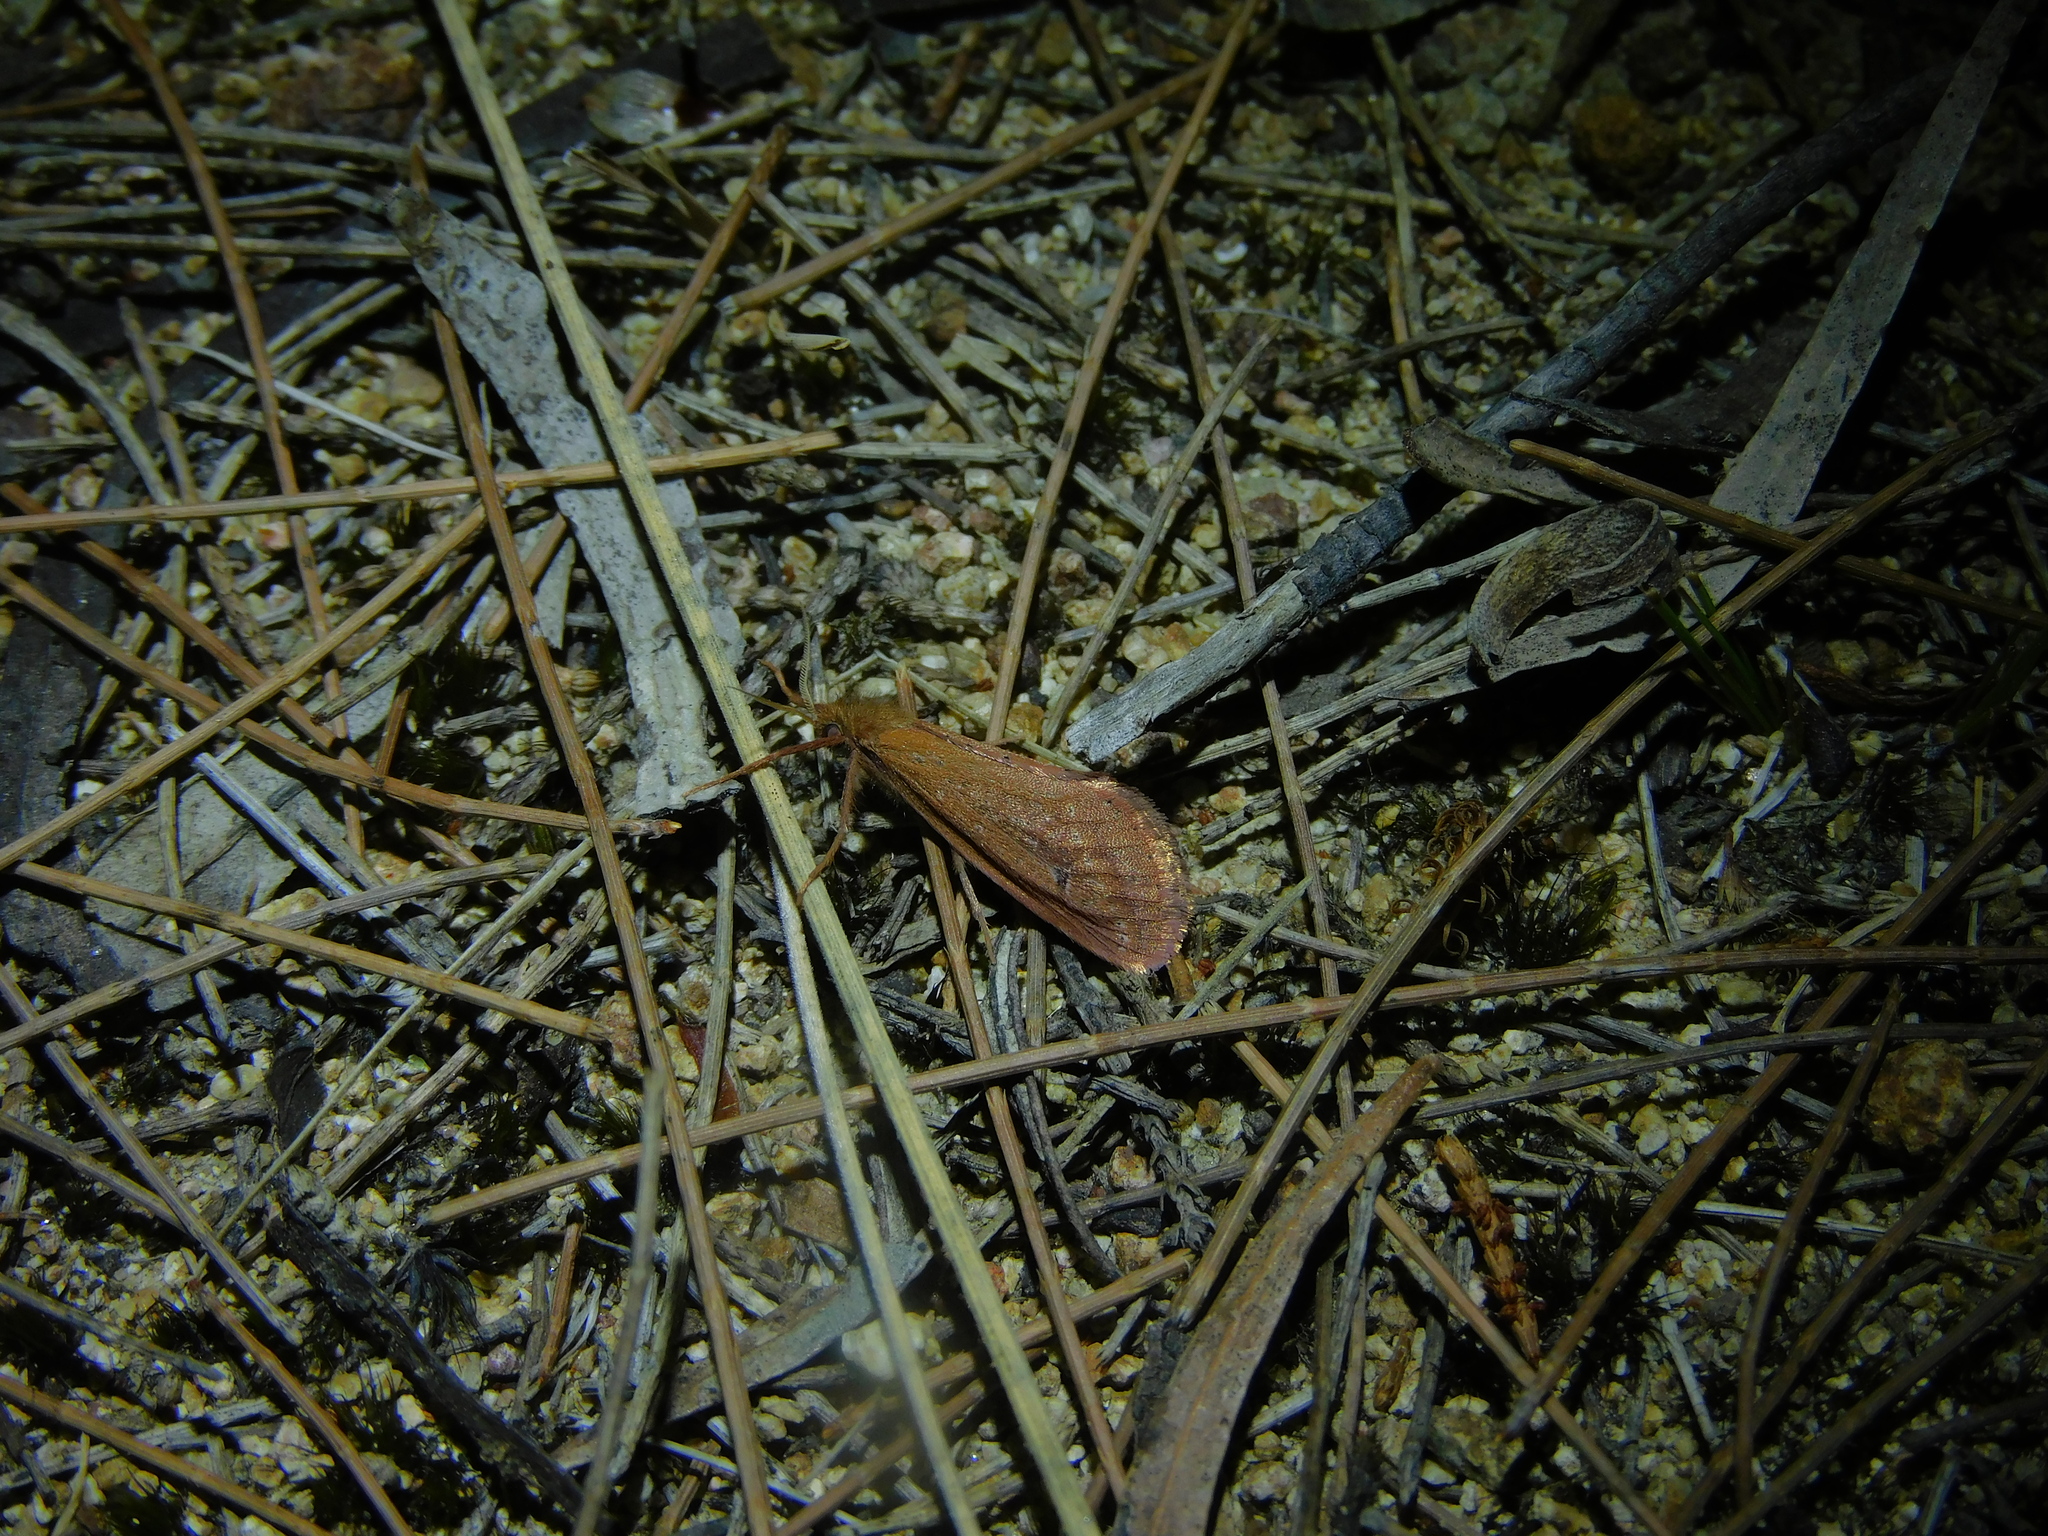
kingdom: Animalia
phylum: Arthropoda
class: Insecta
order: Lepidoptera
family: Hepialidae
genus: Fraus
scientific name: Fraus nanus
